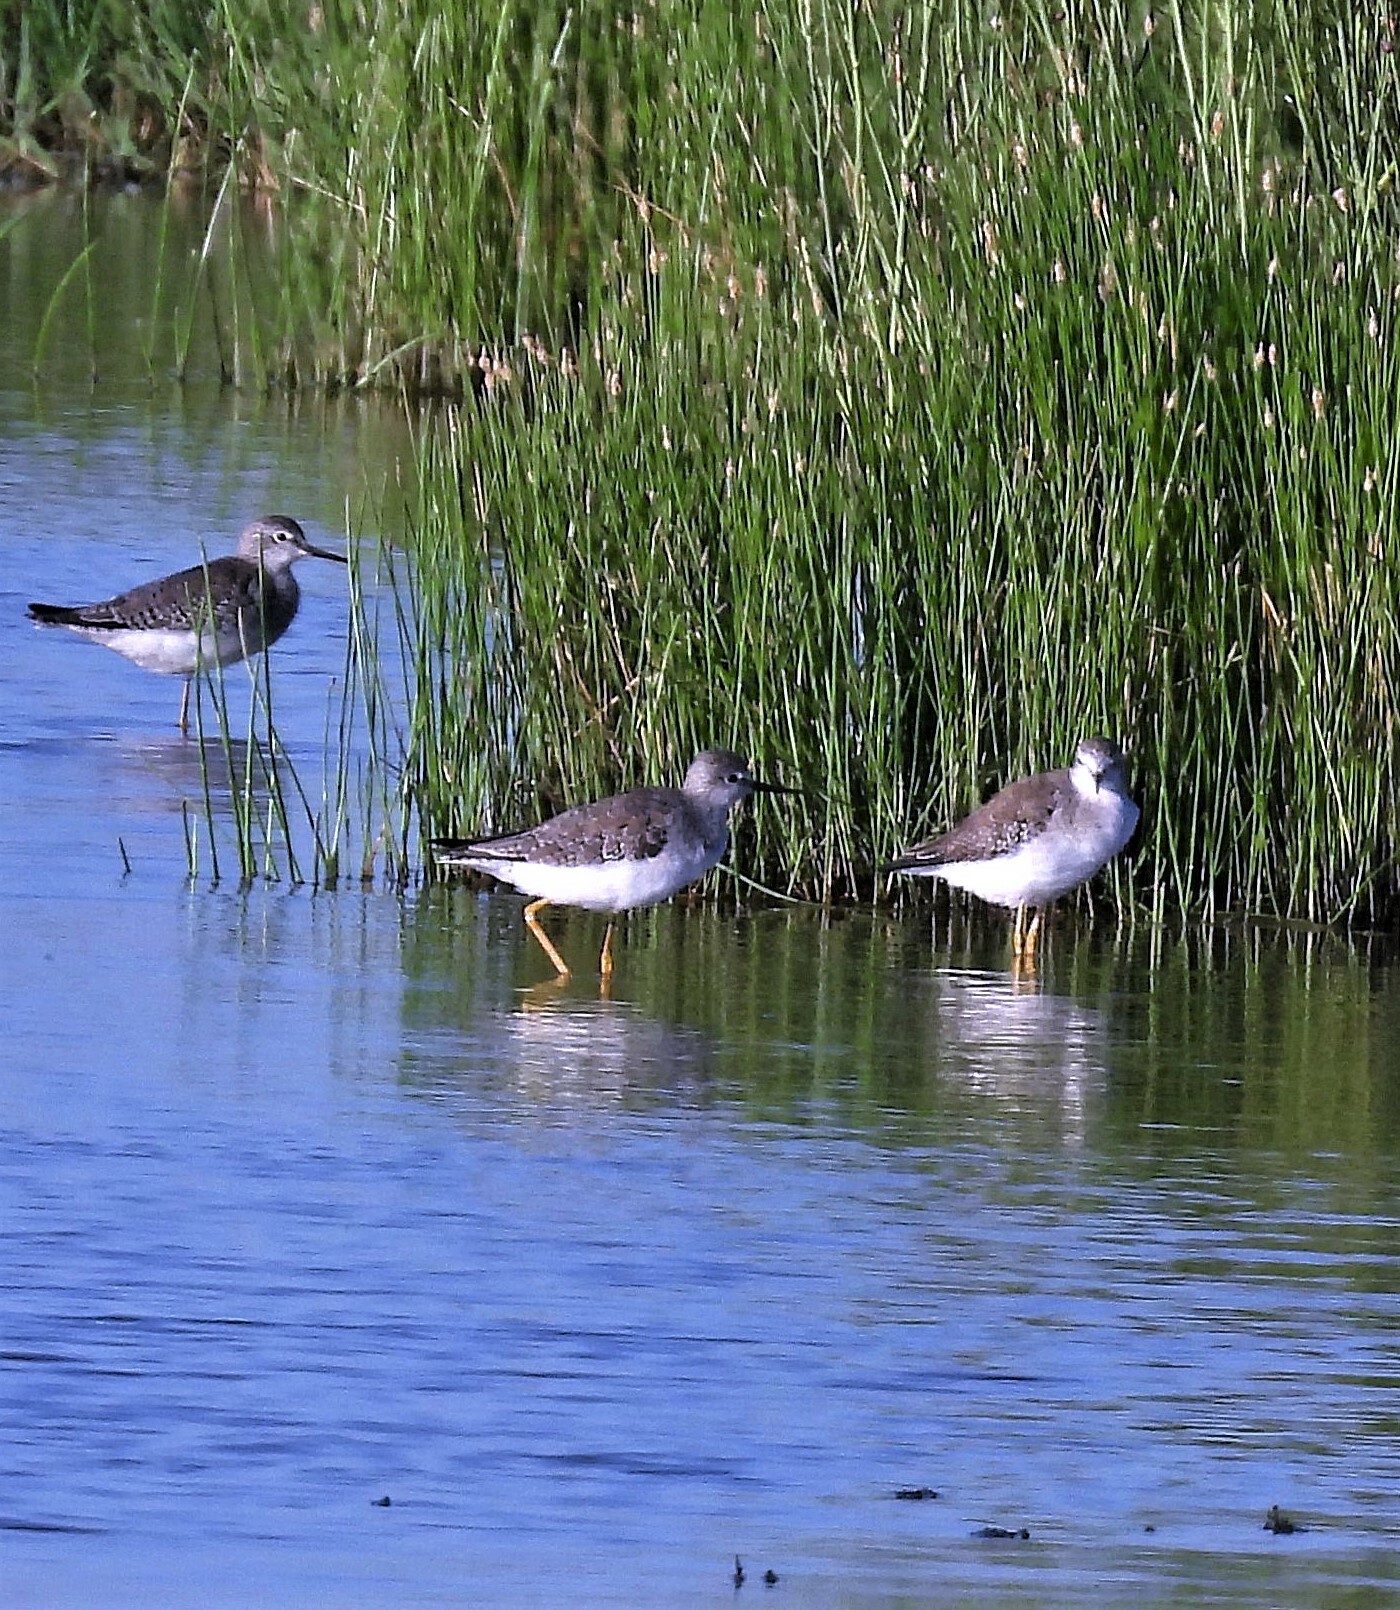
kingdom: Animalia
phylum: Chordata
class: Aves
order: Charadriiformes
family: Scolopacidae
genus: Tringa
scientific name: Tringa flavipes
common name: Lesser yellowlegs
